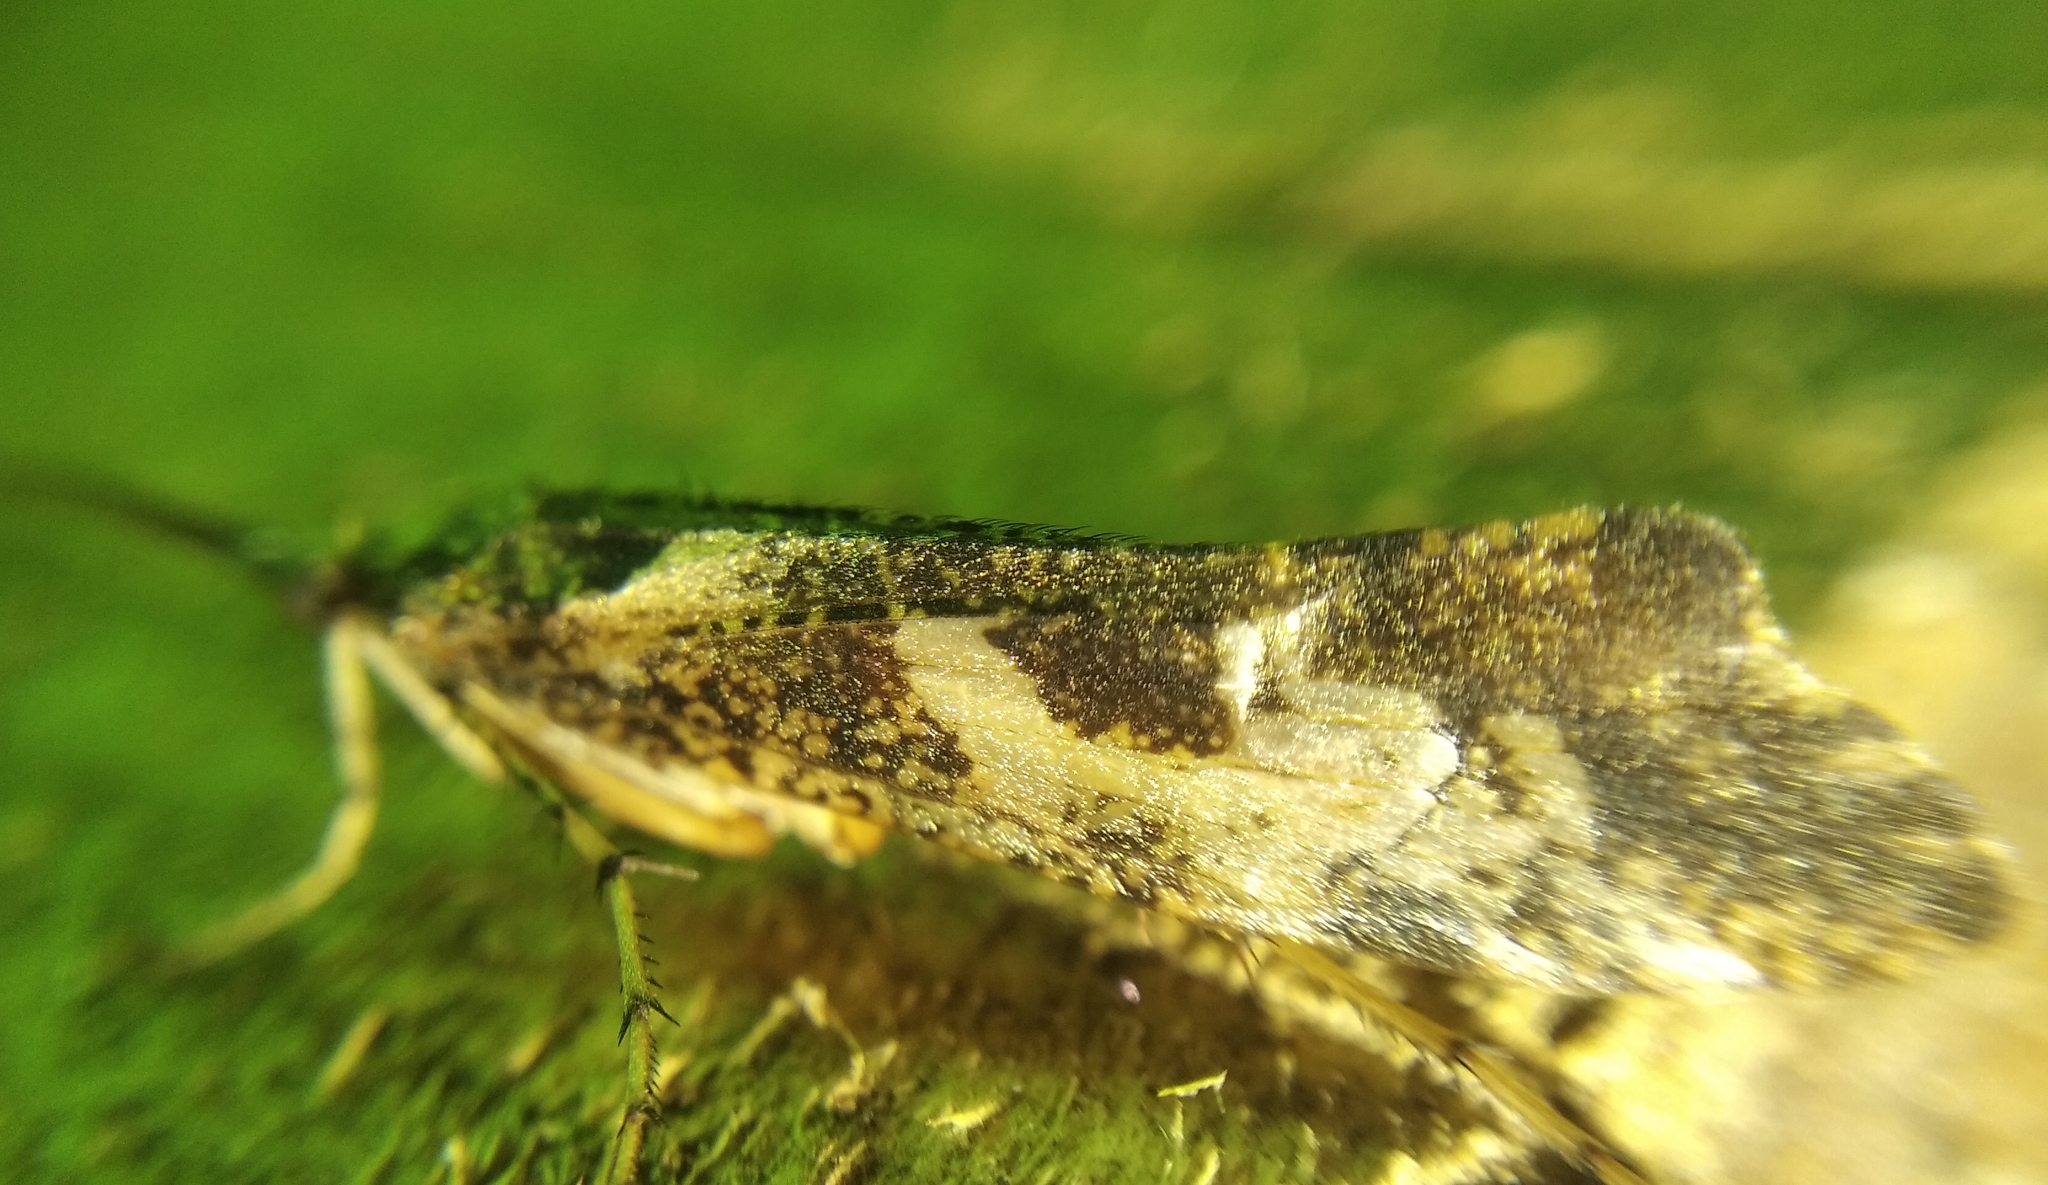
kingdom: Animalia
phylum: Arthropoda
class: Insecta
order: Trichoptera
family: Limnephilidae
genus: Glyphotaelius
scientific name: Glyphotaelius pellucidus
